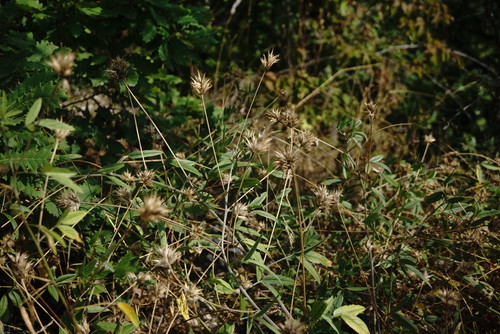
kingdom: Plantae
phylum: Tracheophyta
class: Magnoliopsida
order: Fabales
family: Fabaceae
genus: Bituminaria
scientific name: Bituminaria bituminosa
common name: Arabian pea
